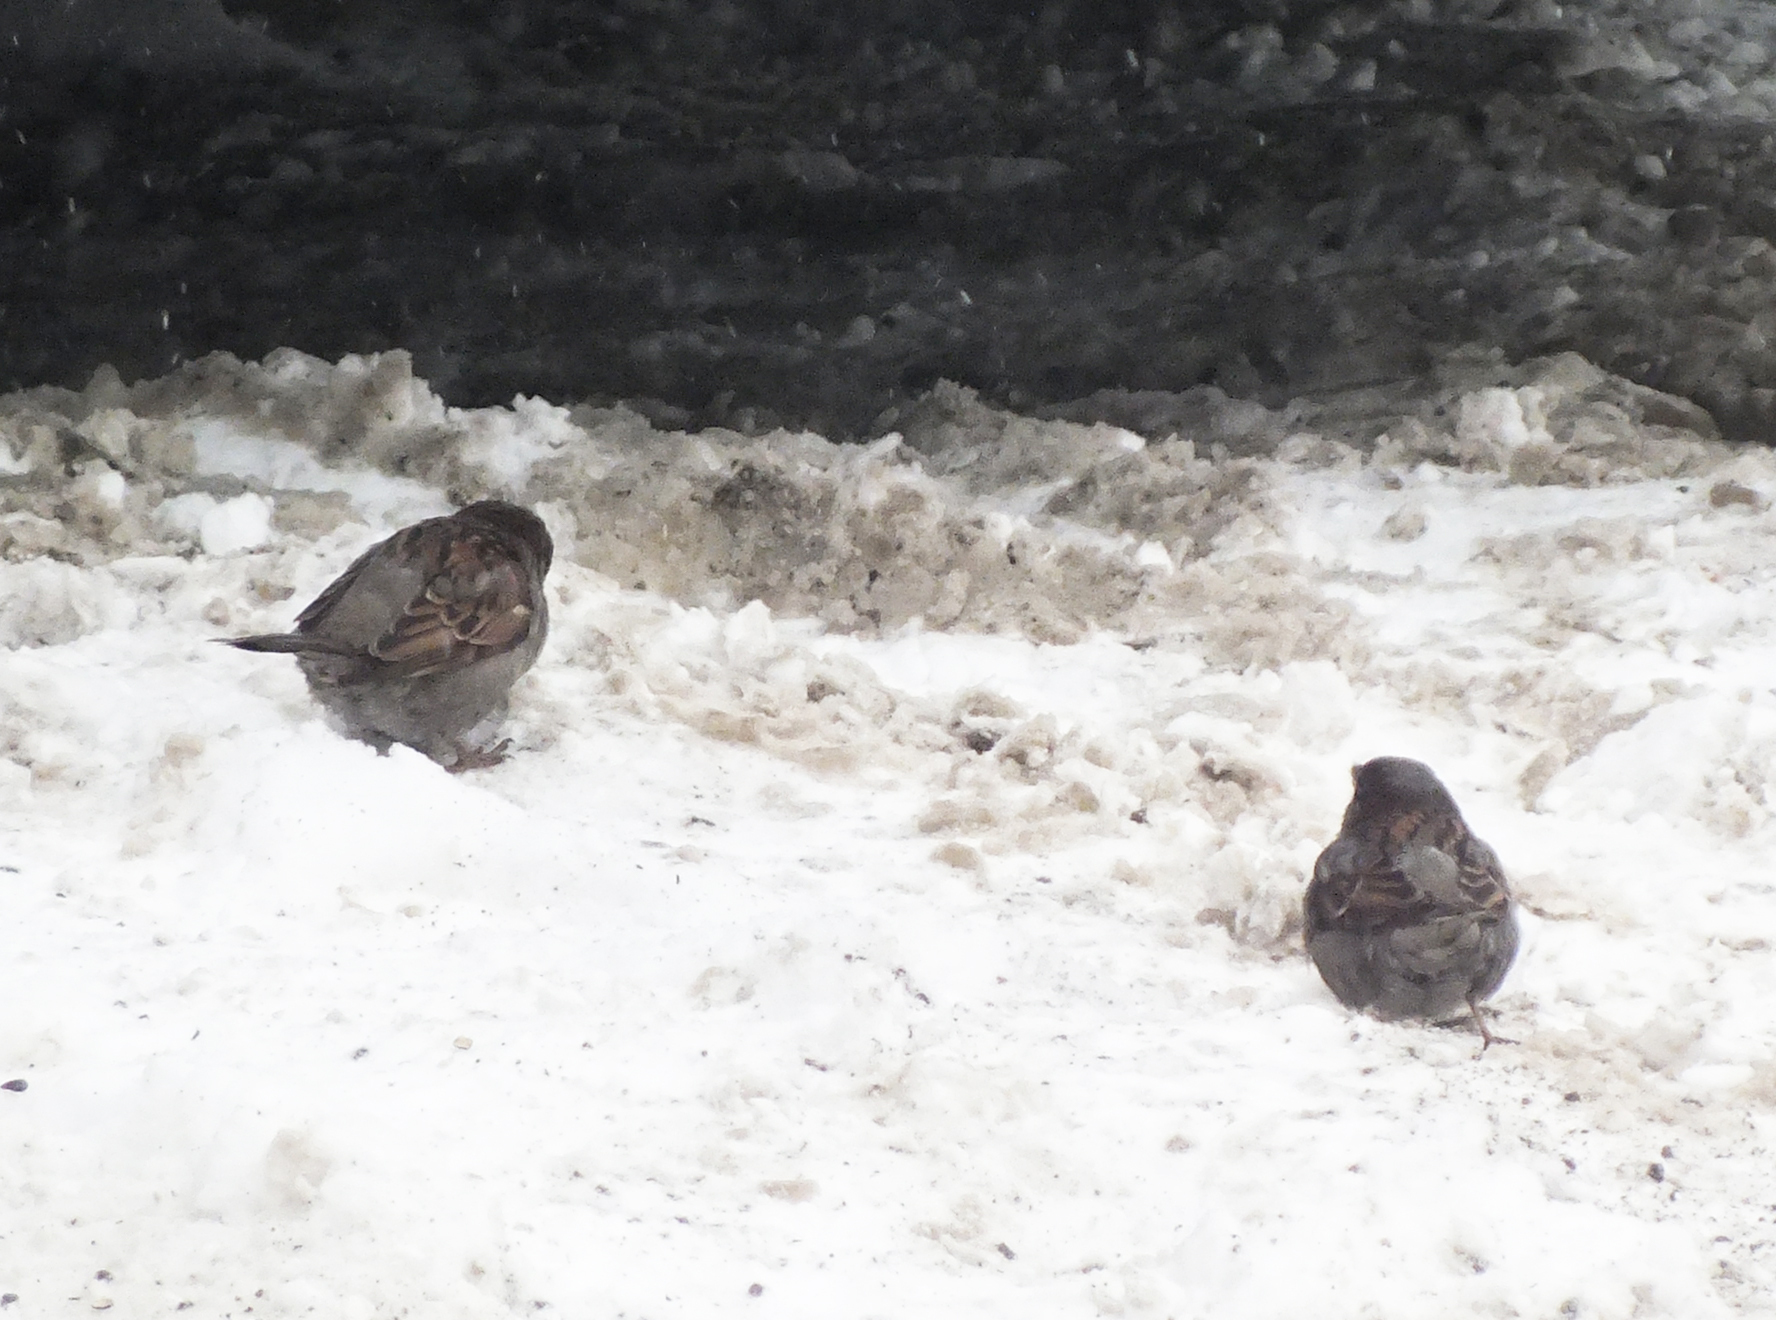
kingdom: Animalia
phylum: Chordata
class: Aves
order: Passeriformes
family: Passeridae
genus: Passer
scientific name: Passer domesticus
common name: House sparrow
